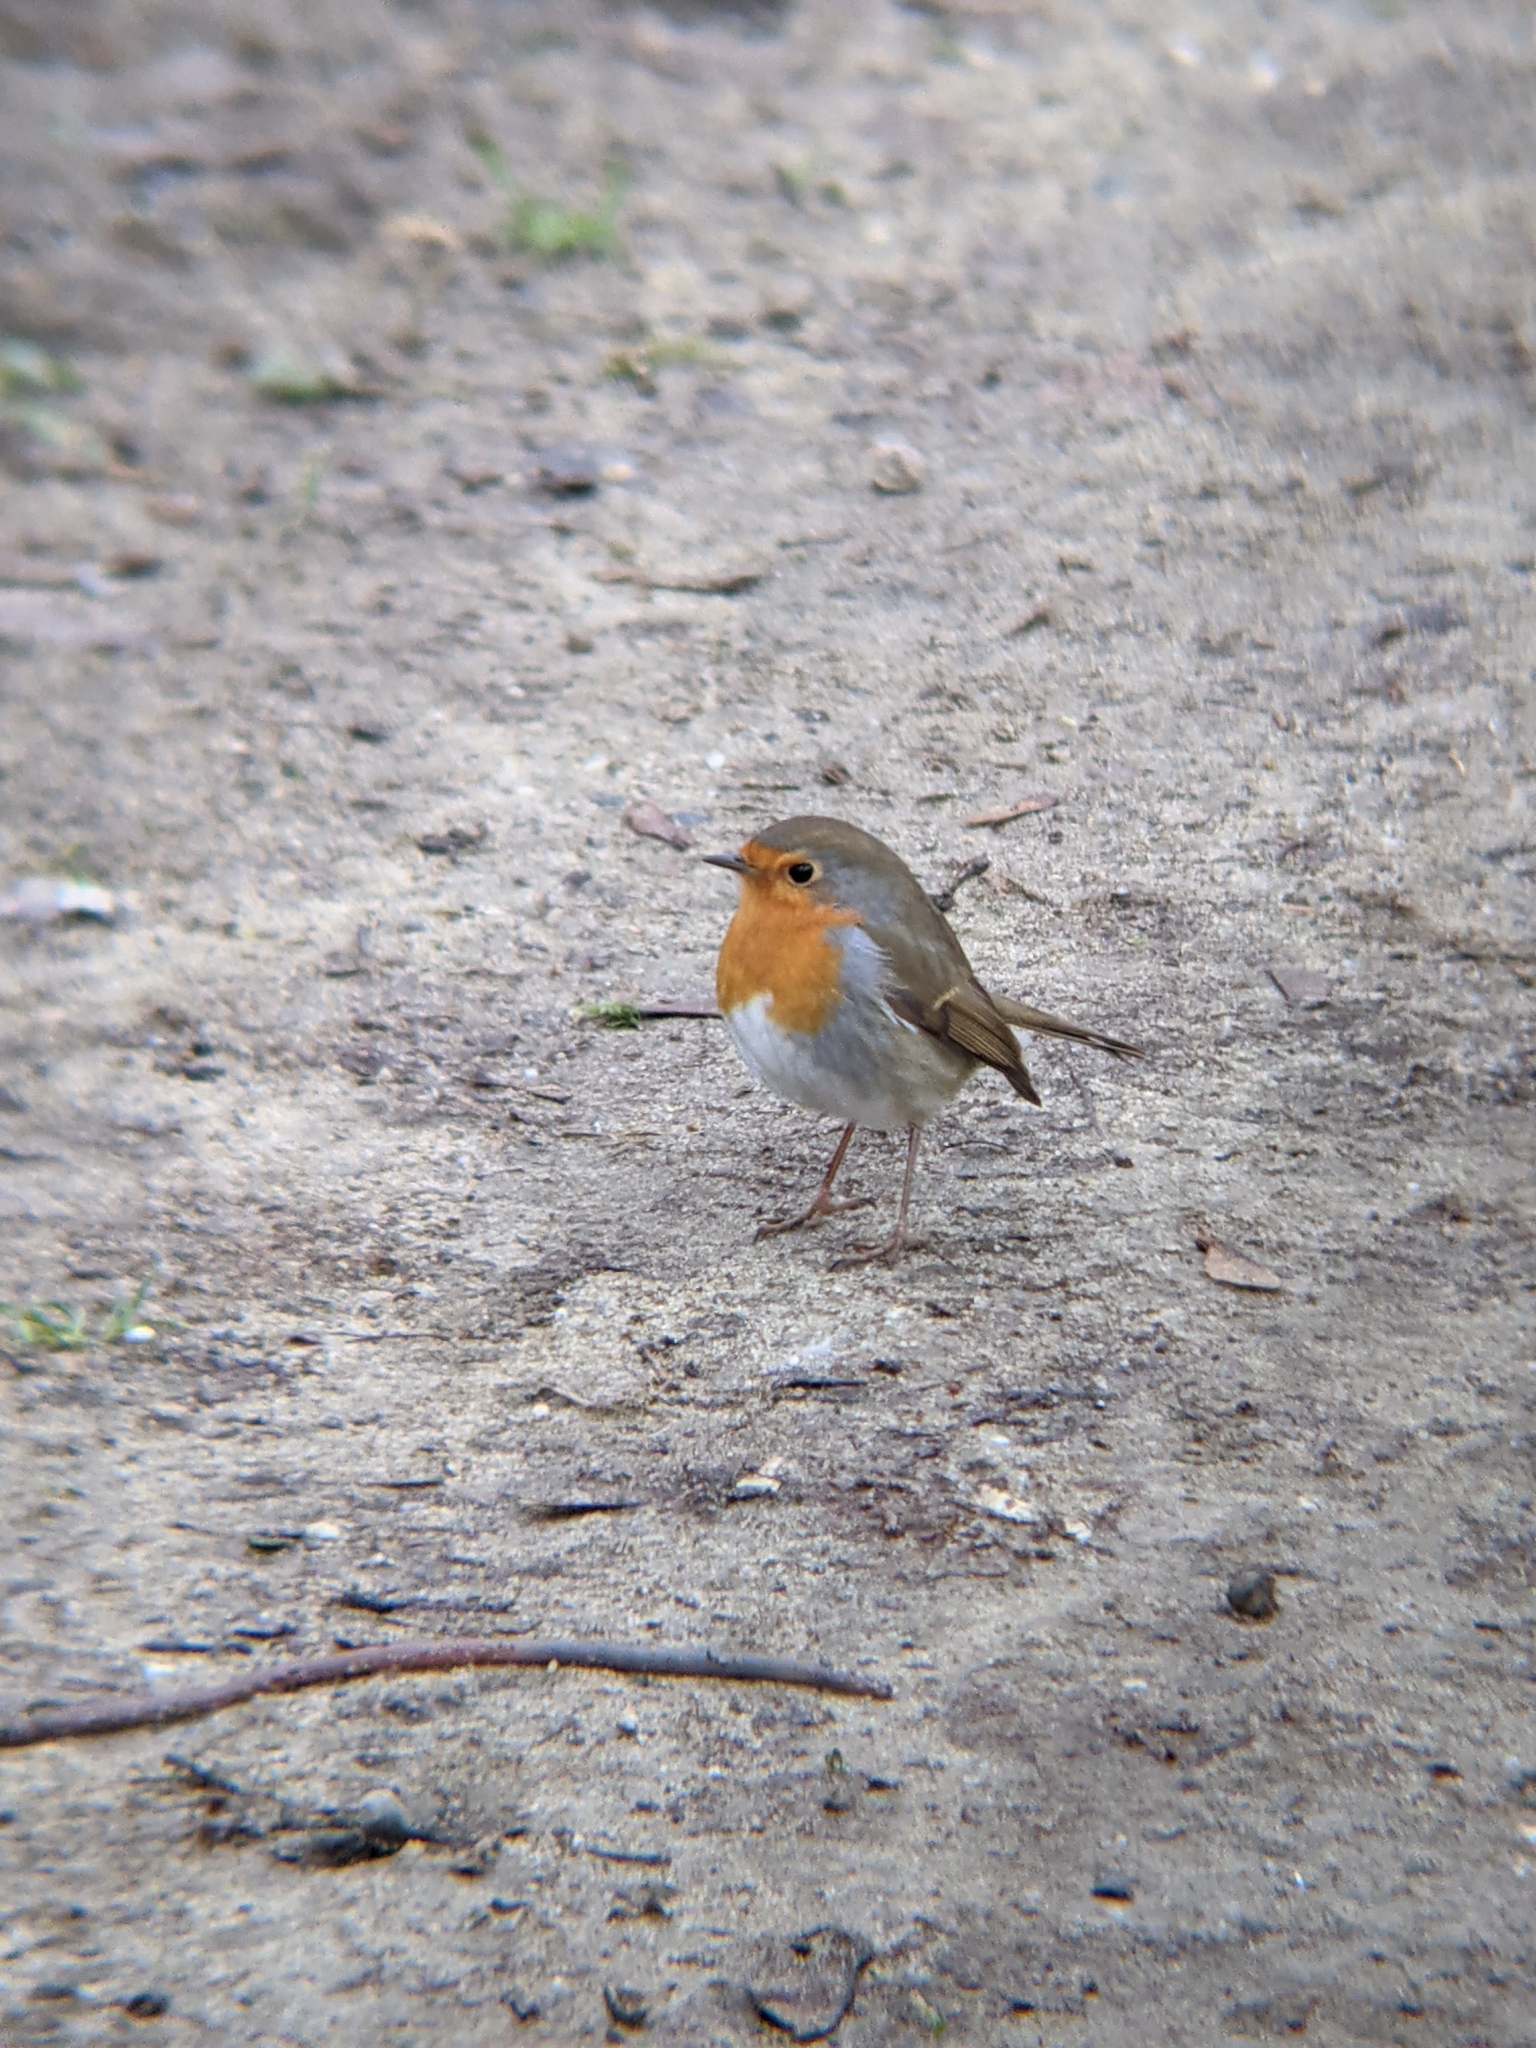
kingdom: Animalia
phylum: Chordata
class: Aves
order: Passeriformes
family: Muscicapidae
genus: Erithacus
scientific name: Erithacus rubecula
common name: European robin
